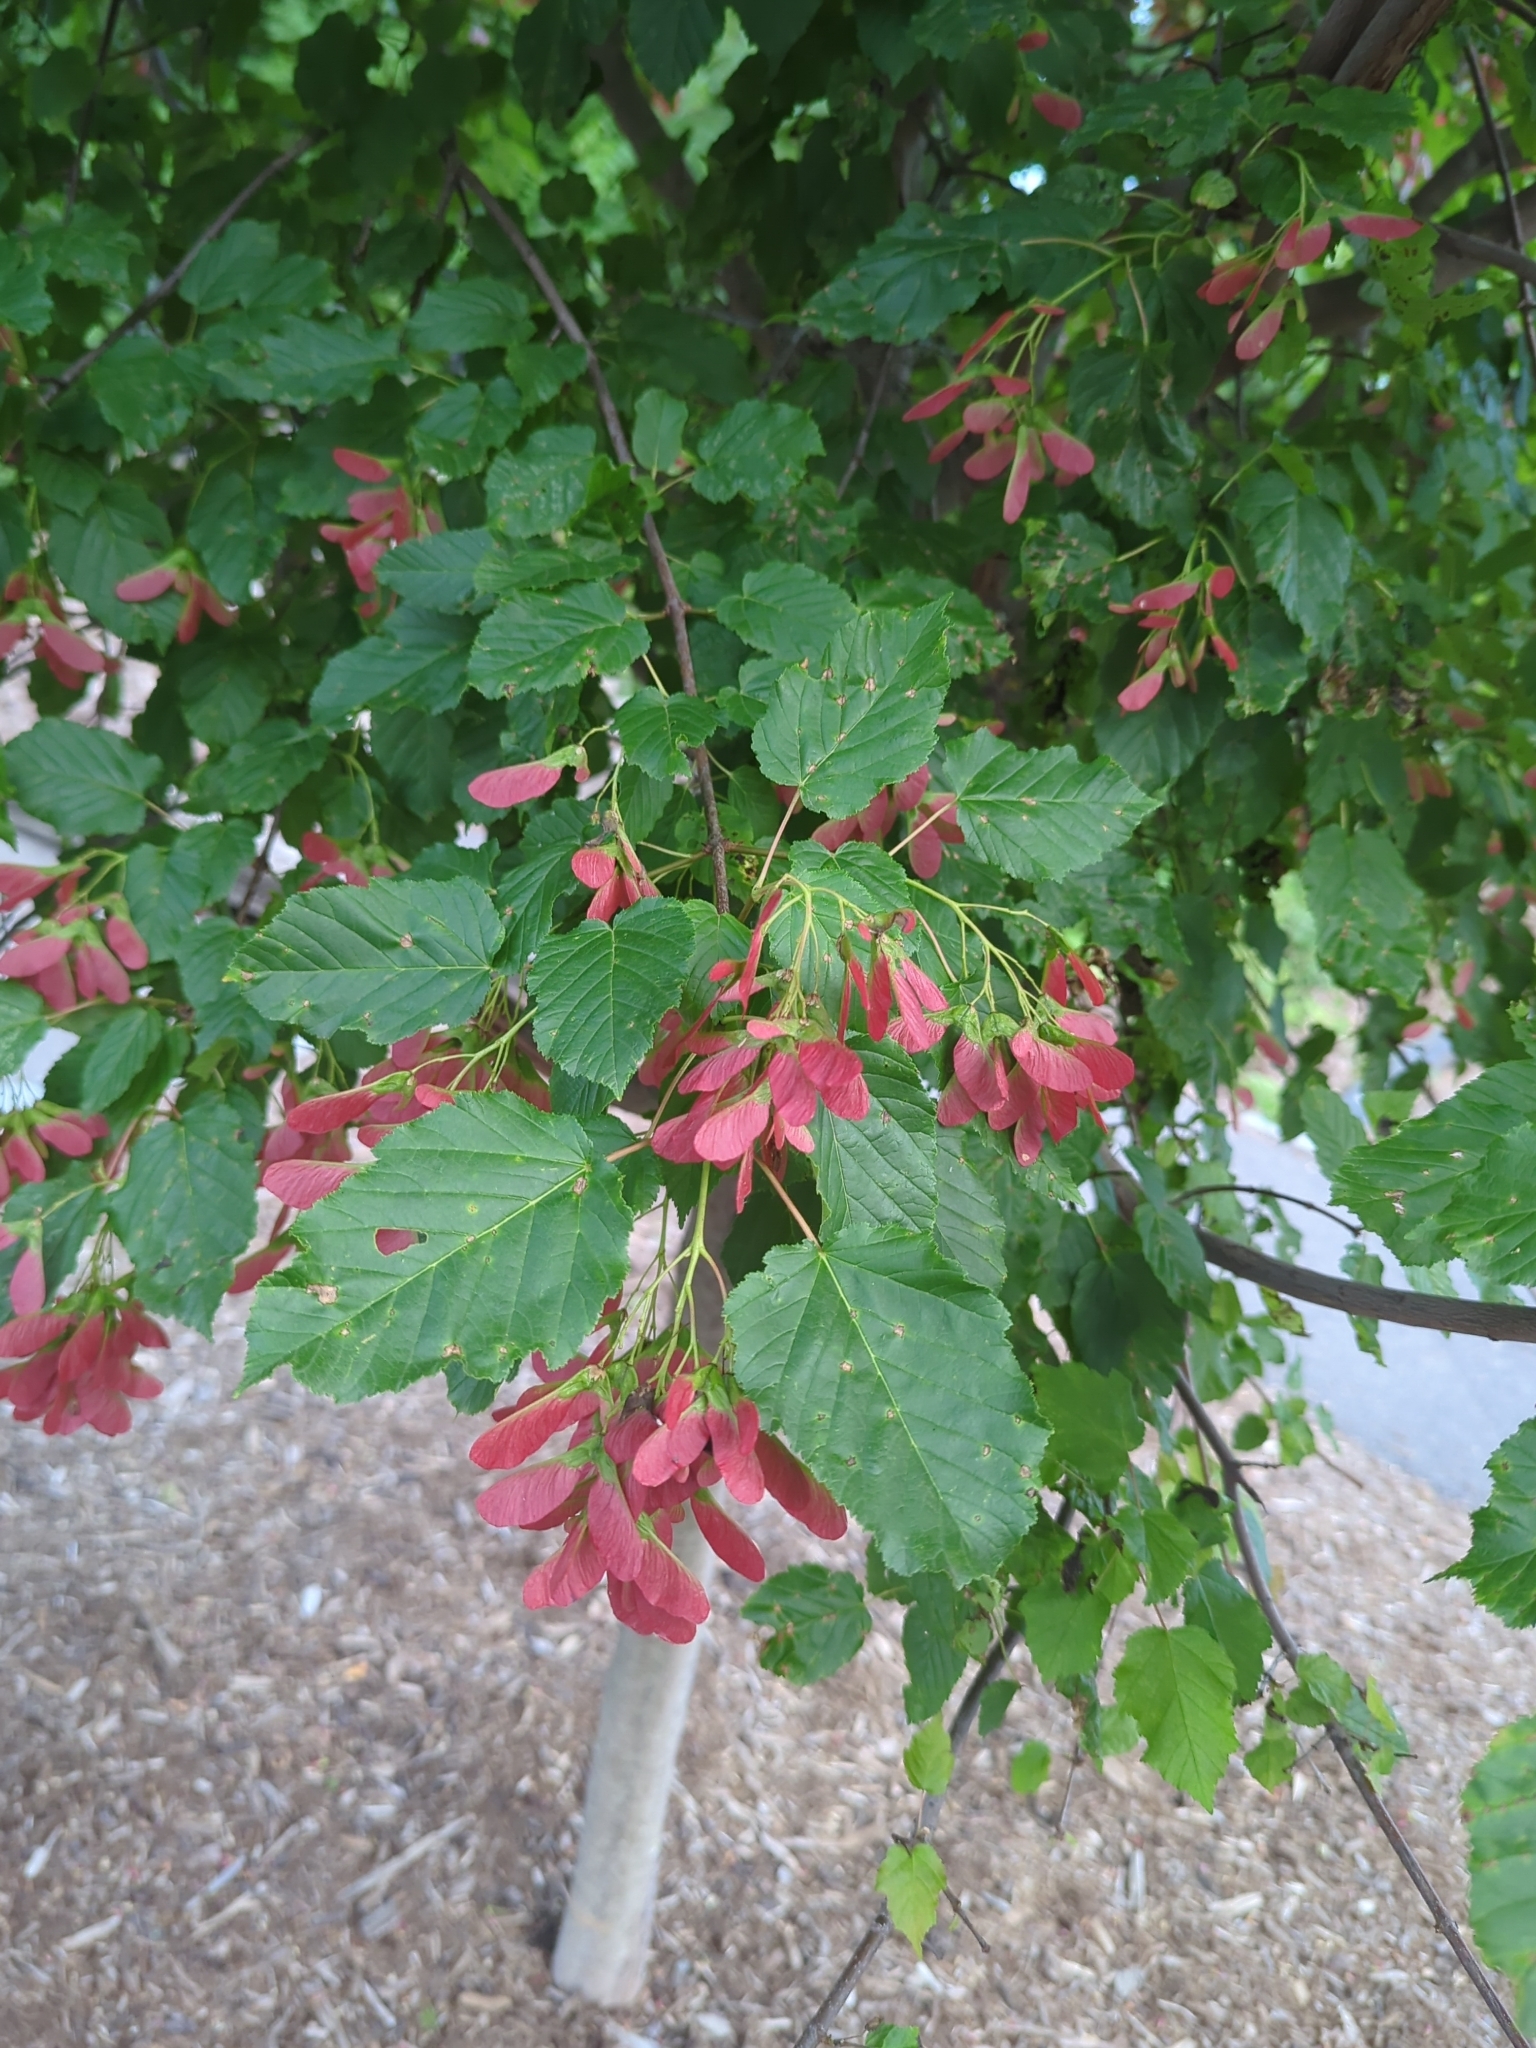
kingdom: Plantae
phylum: Tracheophyta
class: Magnoliopsida
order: Sapindales
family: Sapindaceae
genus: Acer
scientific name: Acer tataricum
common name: Tartar maple
